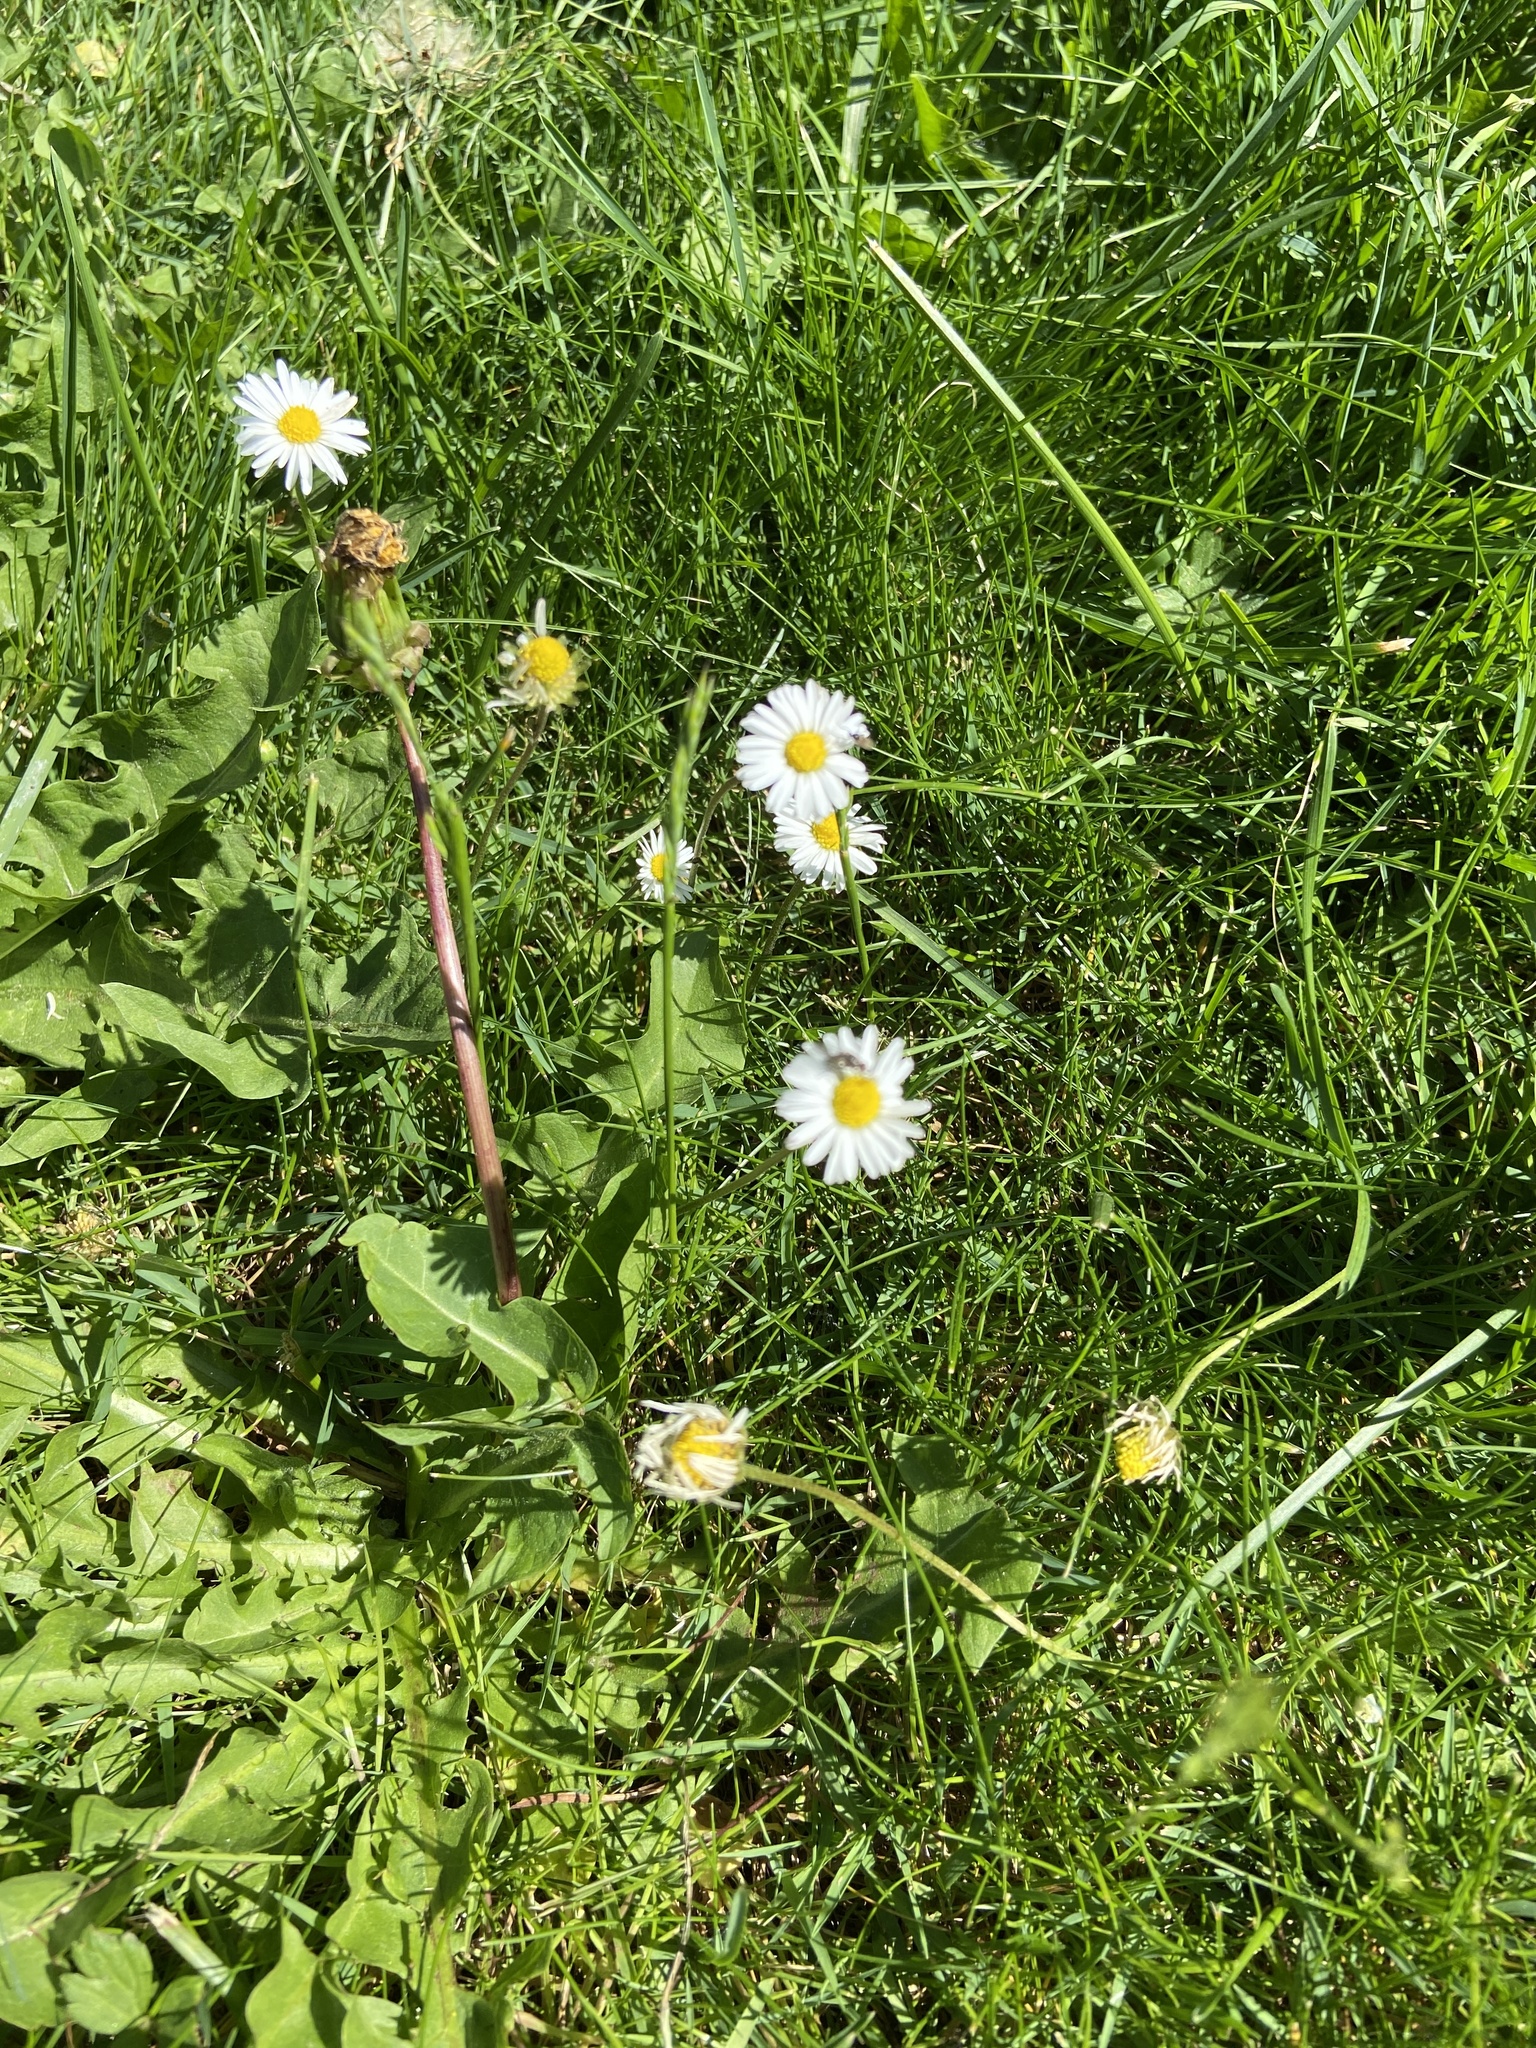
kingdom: Plantae
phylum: Tracheophyta
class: Magnoliopsida
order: Asterales
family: Asteraceae
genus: Bellis
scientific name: Bellis perennis
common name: Lawndaisy
